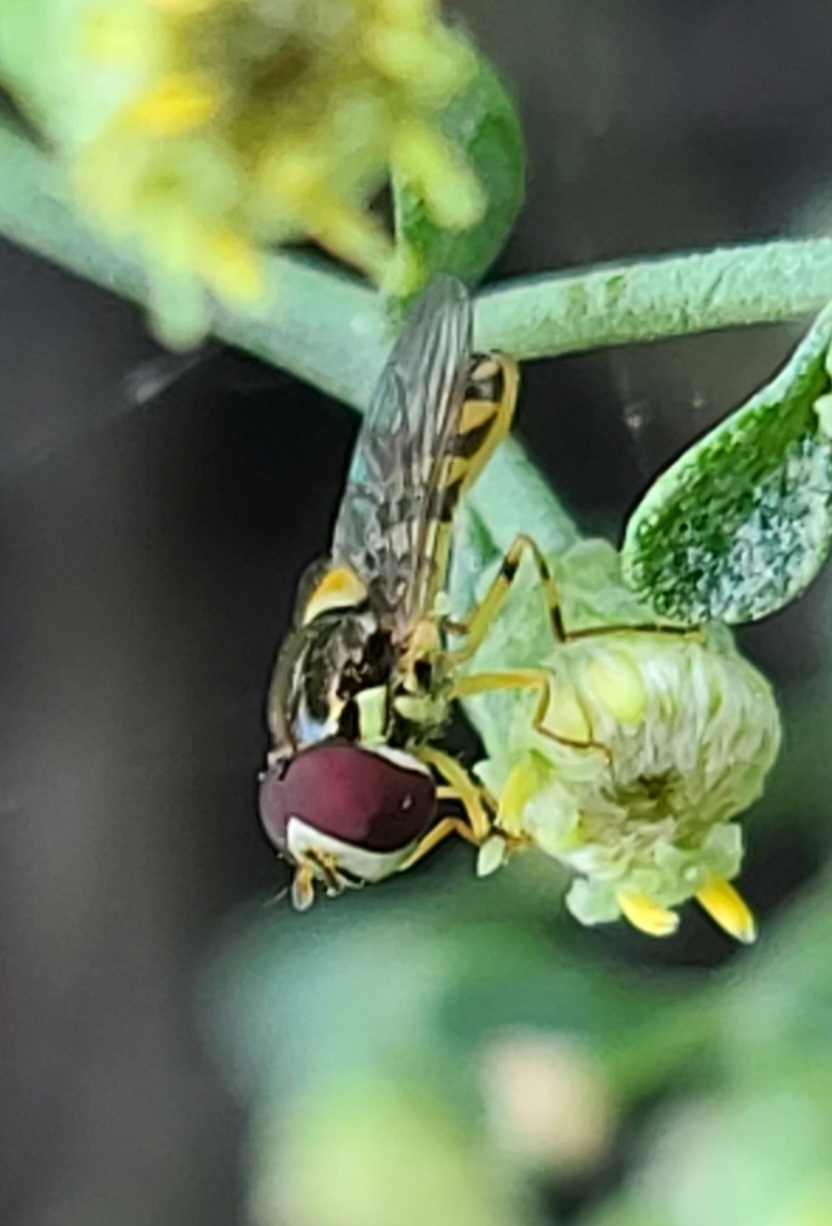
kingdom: Animalia
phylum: Arthropoda
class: Insecta
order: Diptera
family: Syrphidae
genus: Allograpta
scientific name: Allograpta exotica
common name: Syrphid fly
